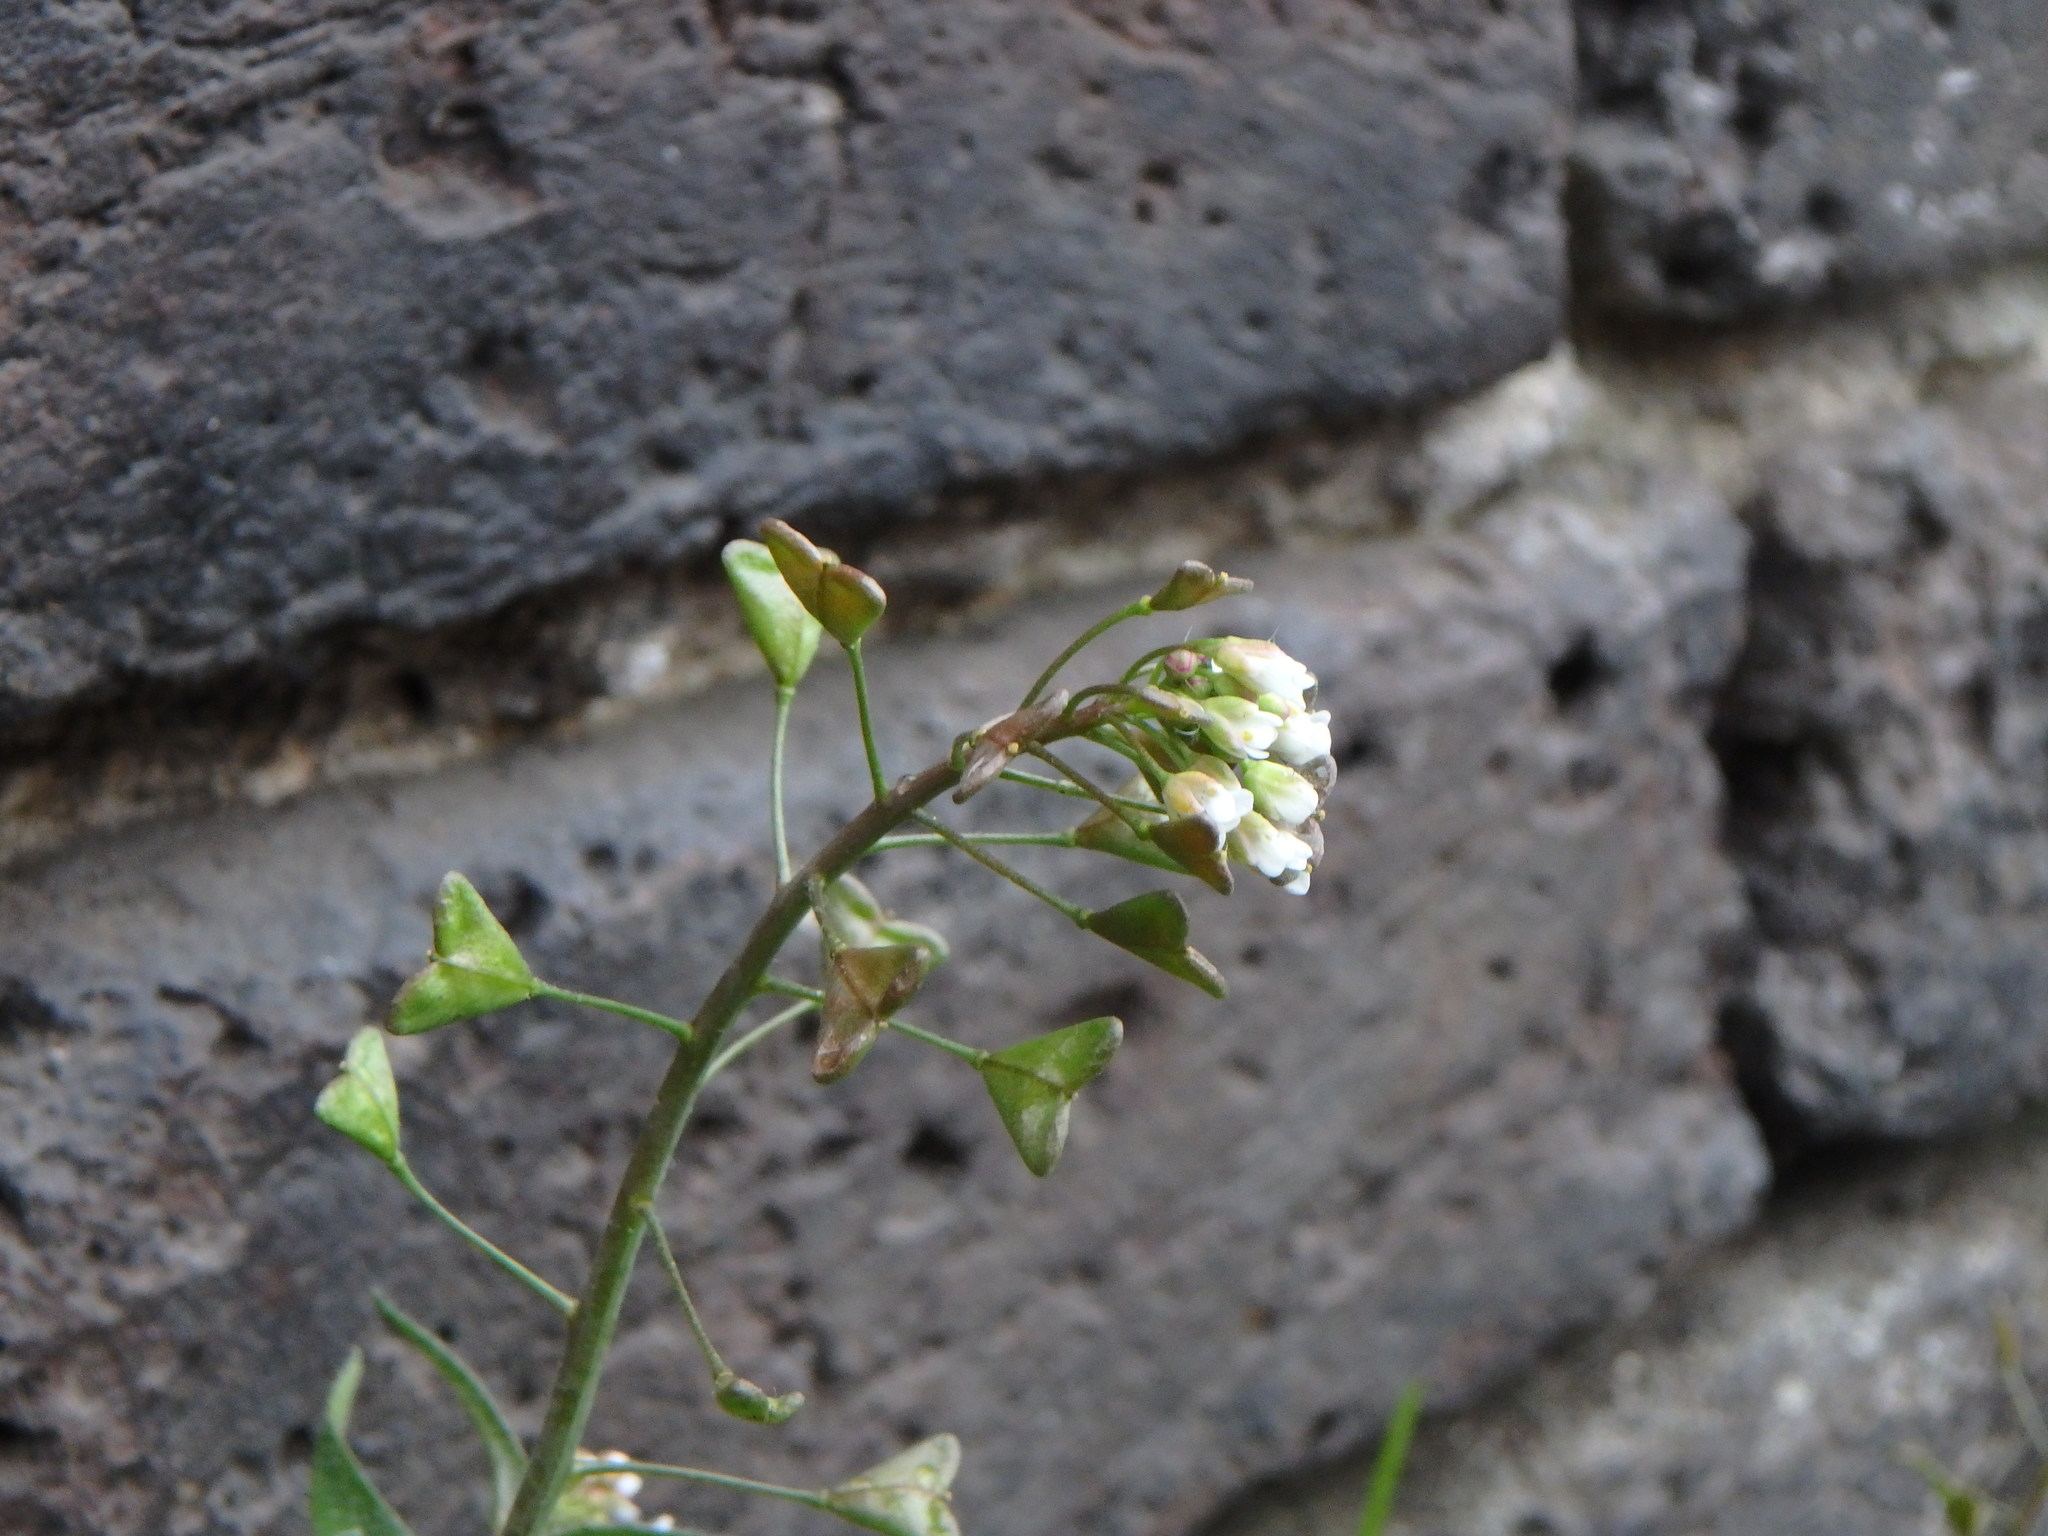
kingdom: Plantae
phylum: Tracheophyta
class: Magnoliopsida
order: Brassicales
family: Brassicaceae
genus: Capsella
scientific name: Capsella bursa-pastoris
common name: Shepherd's purse
